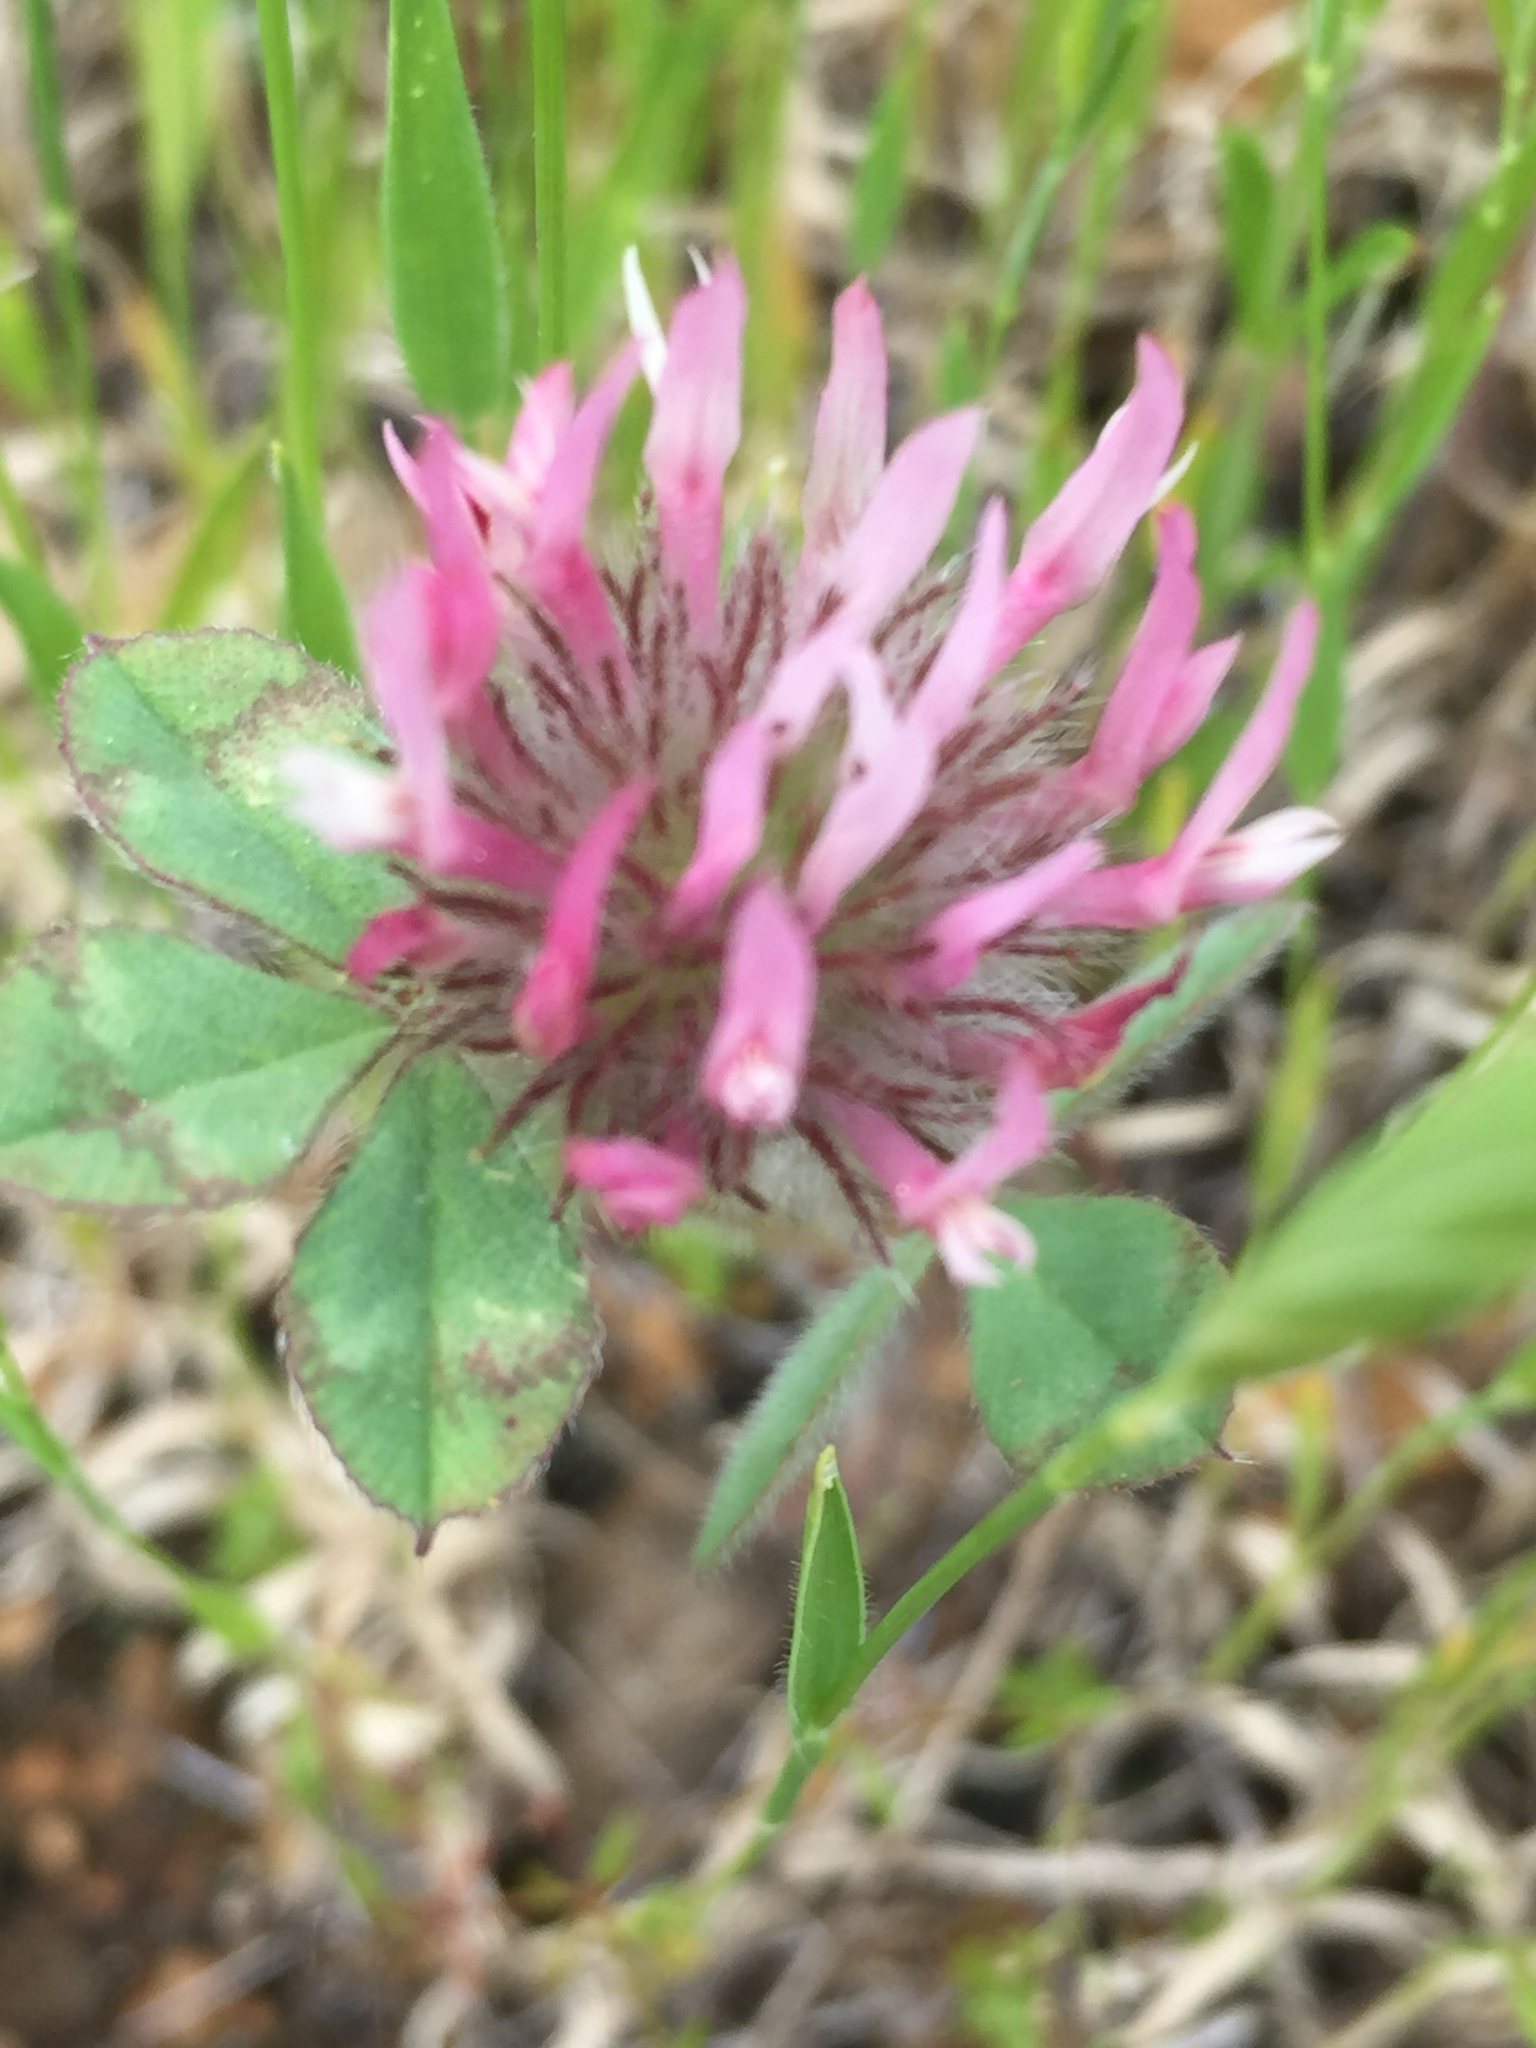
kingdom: Plantae
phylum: Tracheophyta
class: Magnoliopsida
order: Fabales
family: Fabaceae
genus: Trifolium
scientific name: Trifolium hirtum
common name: Rose clover
